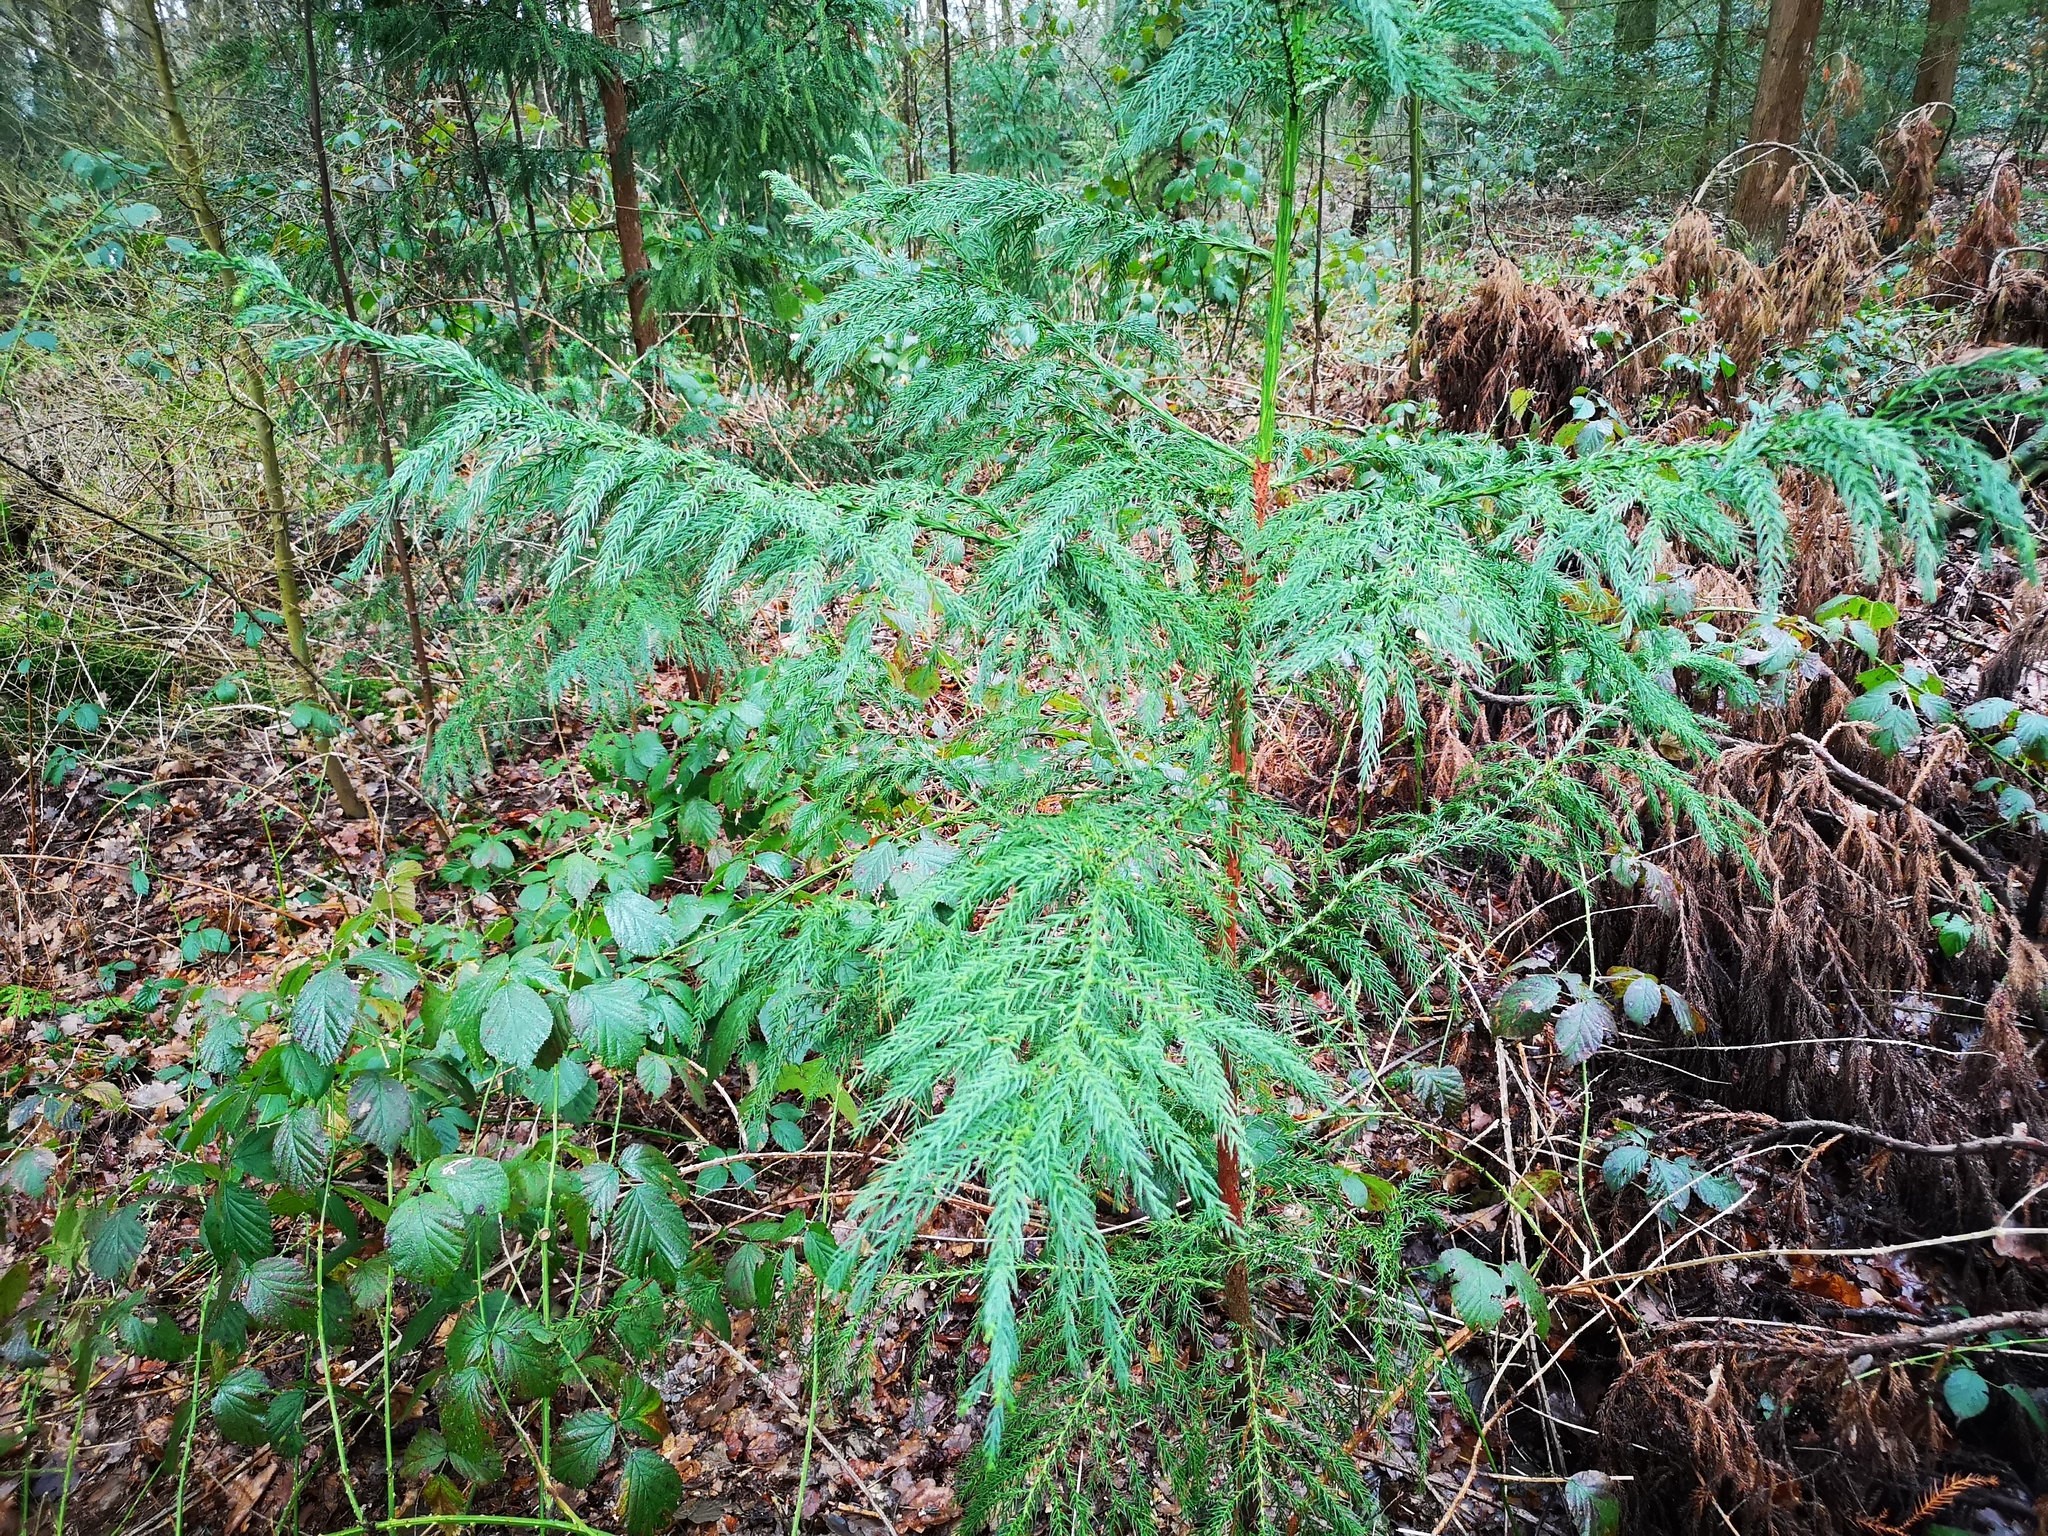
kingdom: Plantae
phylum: Tracheophyta
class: Pinopsida
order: Pinales
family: Cupressaceae
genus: Cryptomeria
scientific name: Cryptomeria japonica
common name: Japanese cedar
